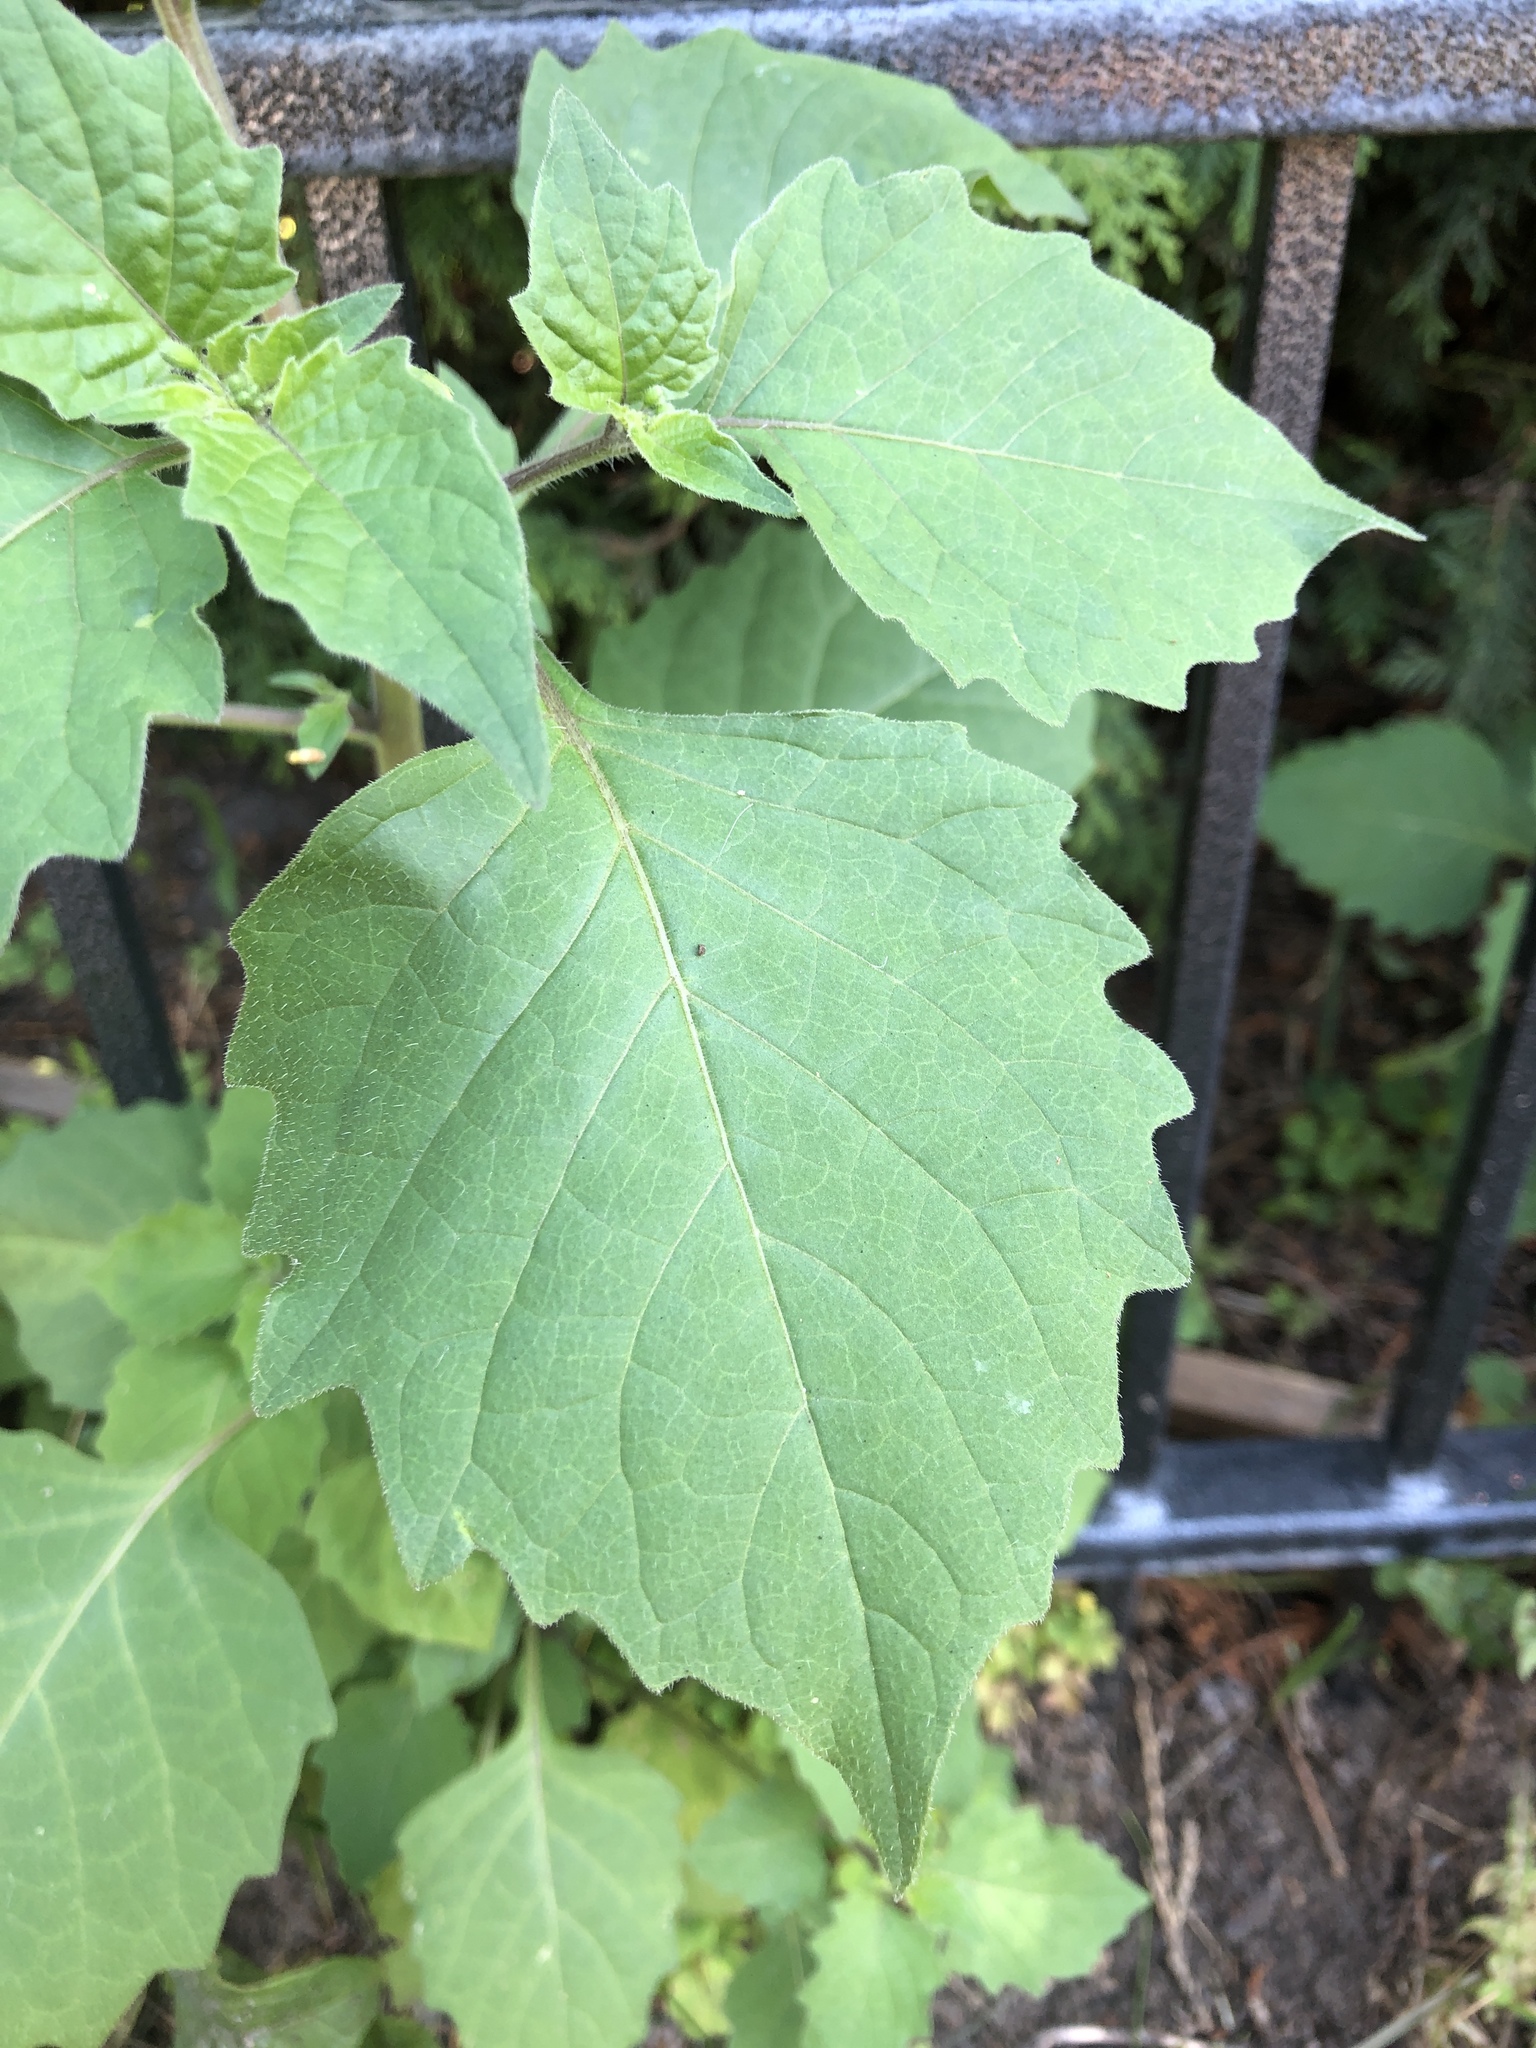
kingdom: Plantae
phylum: Tracheophyta
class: Magnoliopsida
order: Solanales
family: Solanaceae
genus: Solanum
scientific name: Solanum nigrum
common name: Black nightshade
